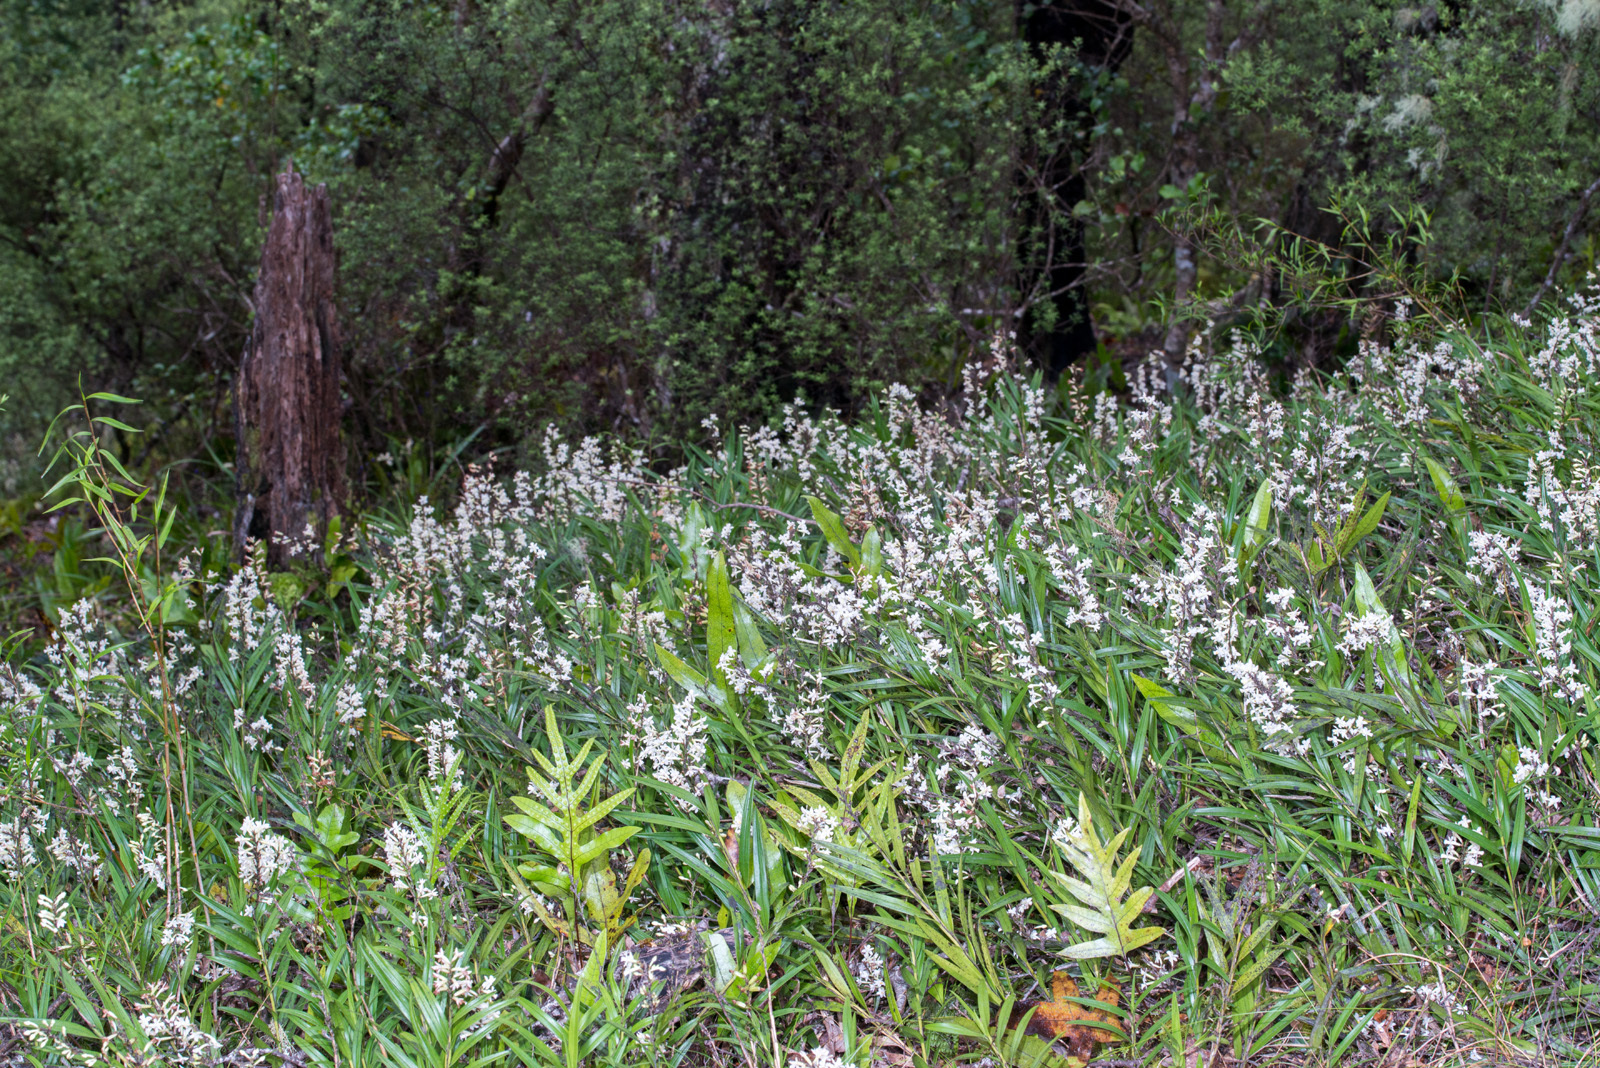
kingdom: Plantae
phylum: Tracheophyta
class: Liliopsida
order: Asparagales
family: Orchidaceae
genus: Earina
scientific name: Earina autumnalis
